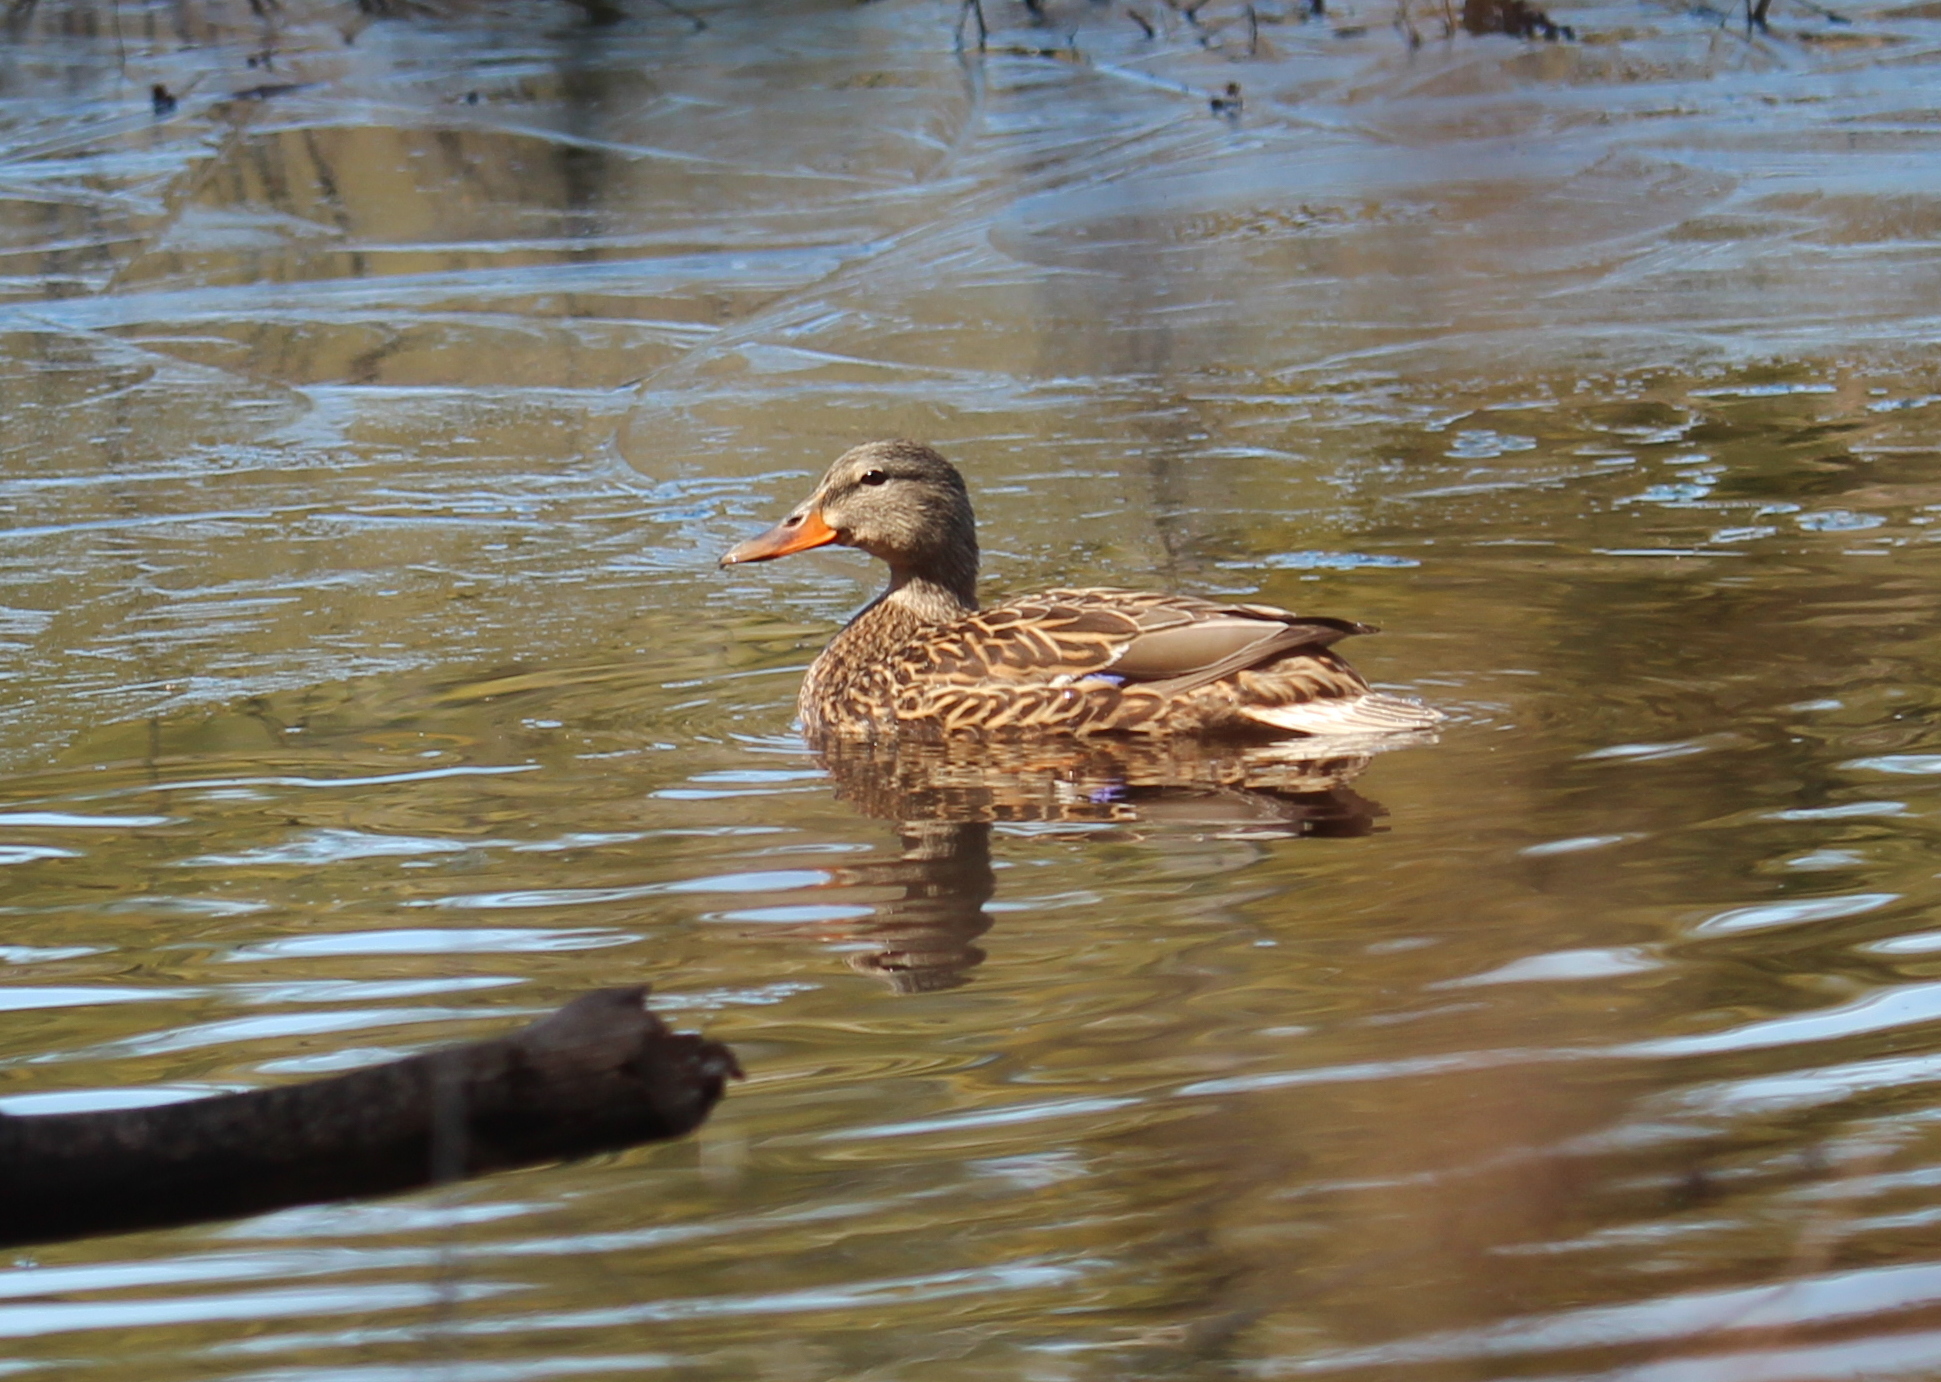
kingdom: Animalia
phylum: Chordata
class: Aves
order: Anseriformes
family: Anatidae
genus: Anas
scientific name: Anas platyrhynchos
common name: Mallard
